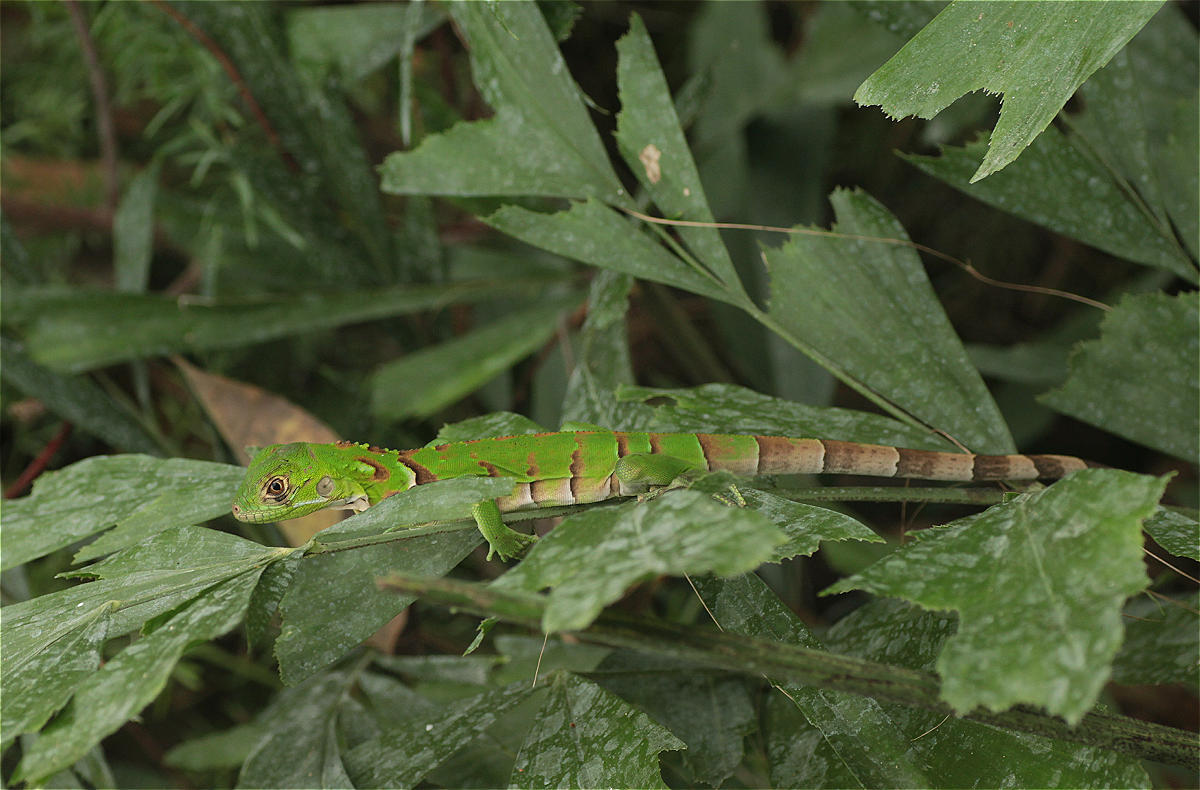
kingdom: Animalia
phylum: Chordata
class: Squamata
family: Iguanidae
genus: Iguana
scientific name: Iguana iguana
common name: Green iguana
